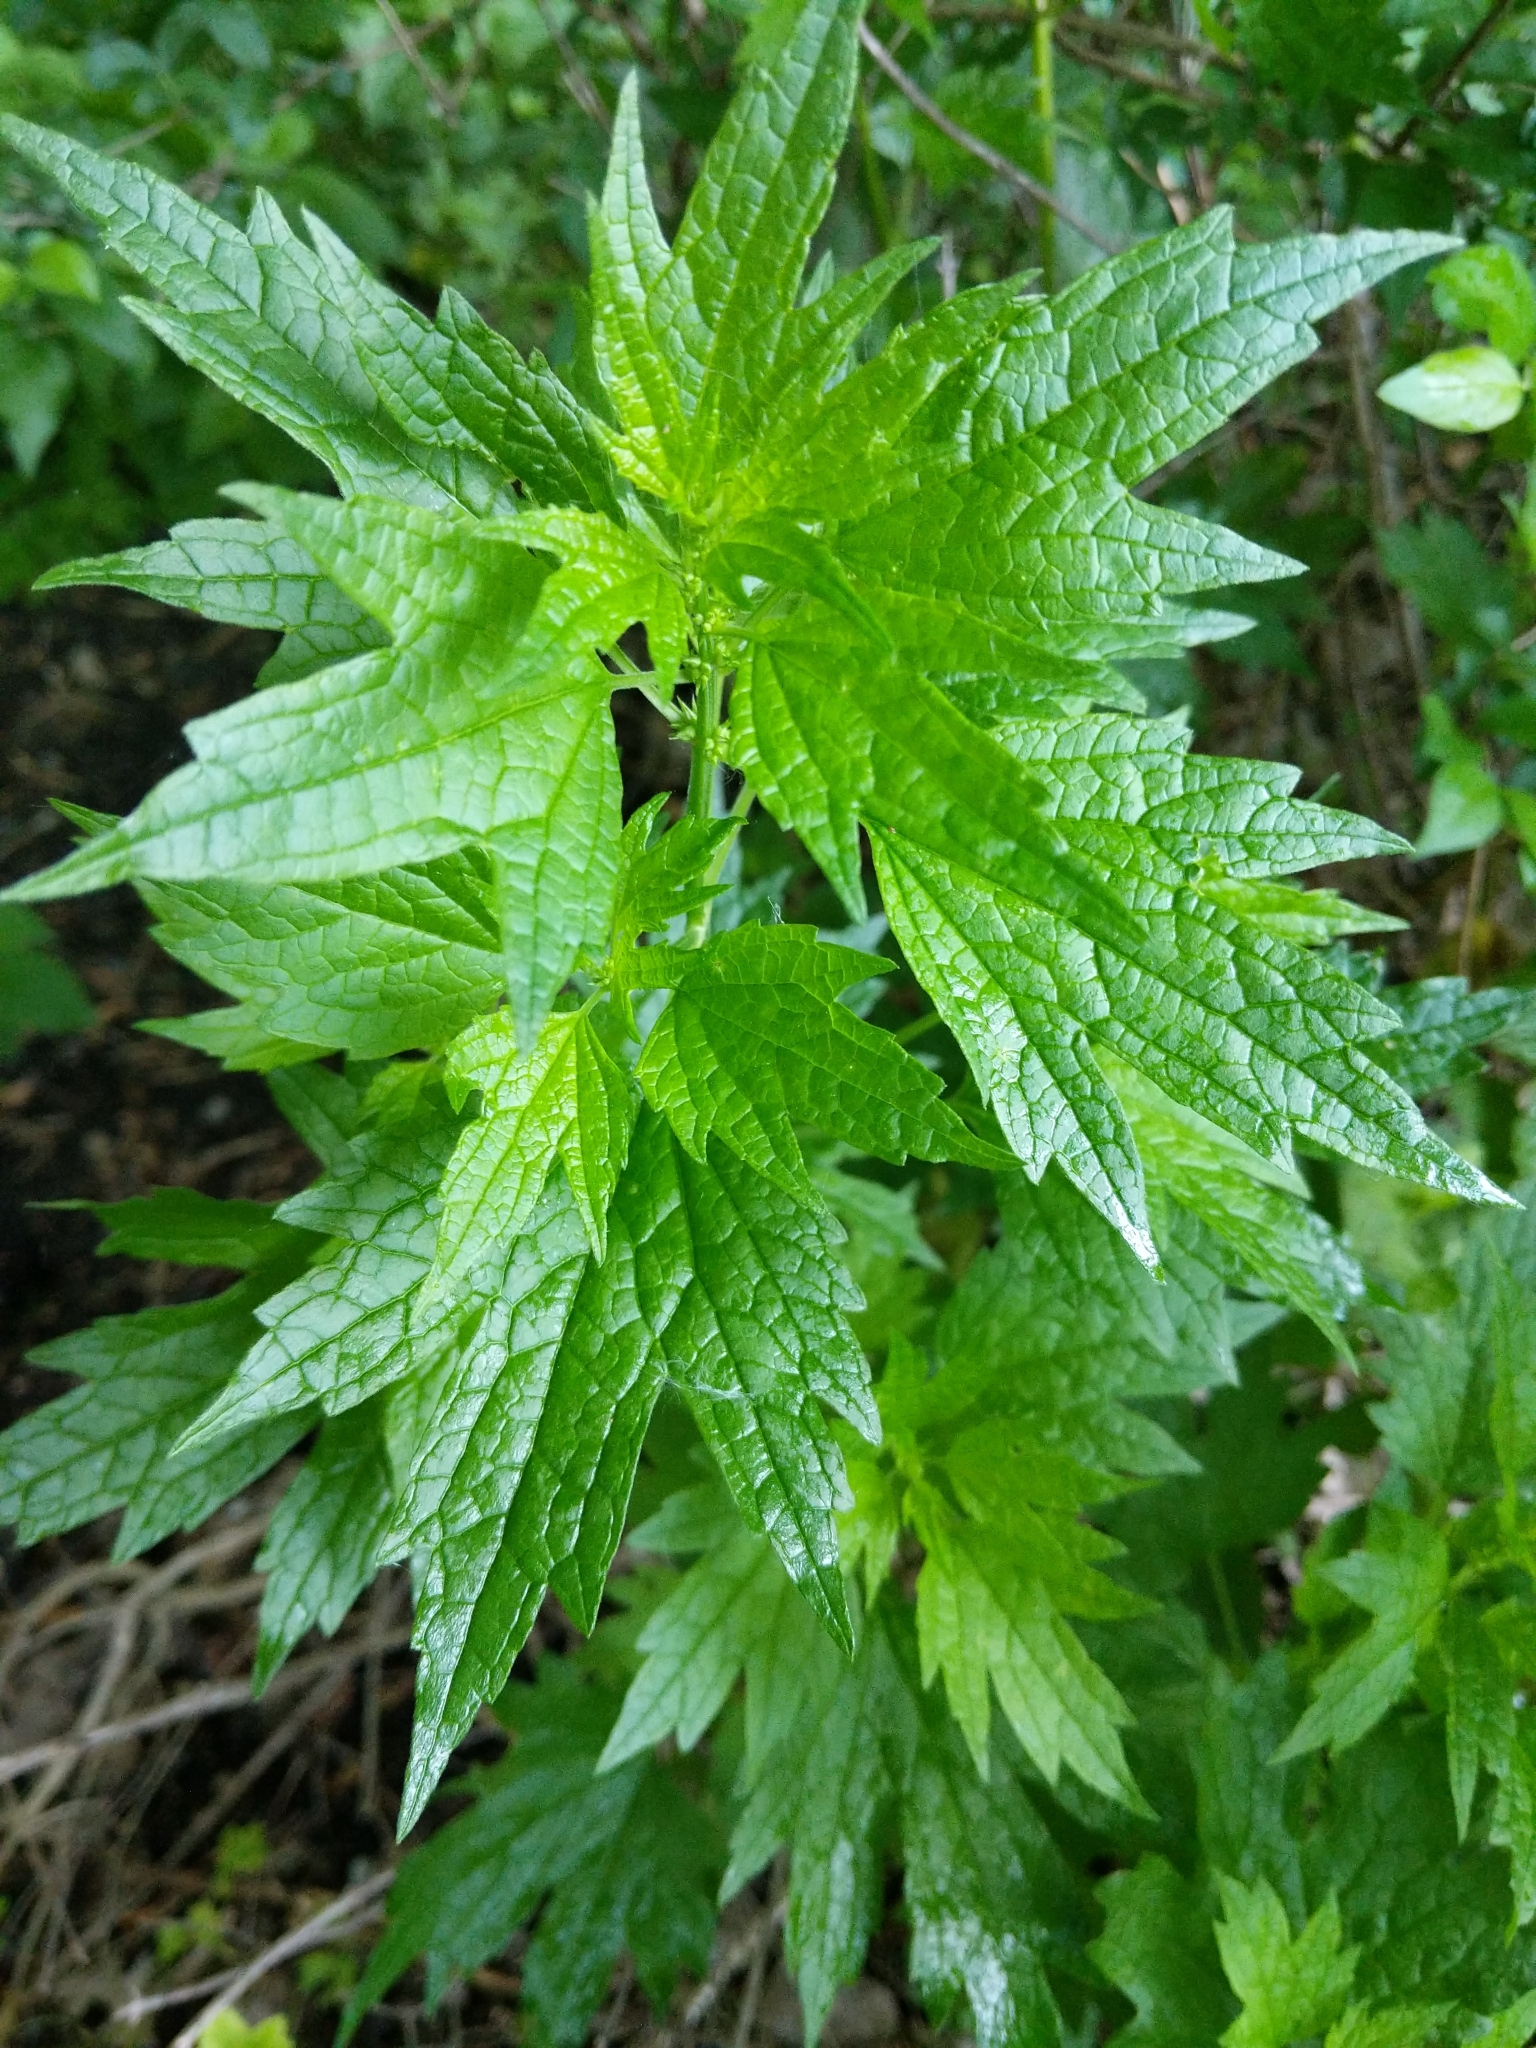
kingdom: Plantae
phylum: Tracheophyta
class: Magnoliopsida
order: Lamiales
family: Lamiaceae
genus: Leonurus
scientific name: Leonurus cardiaca
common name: Motherwort
